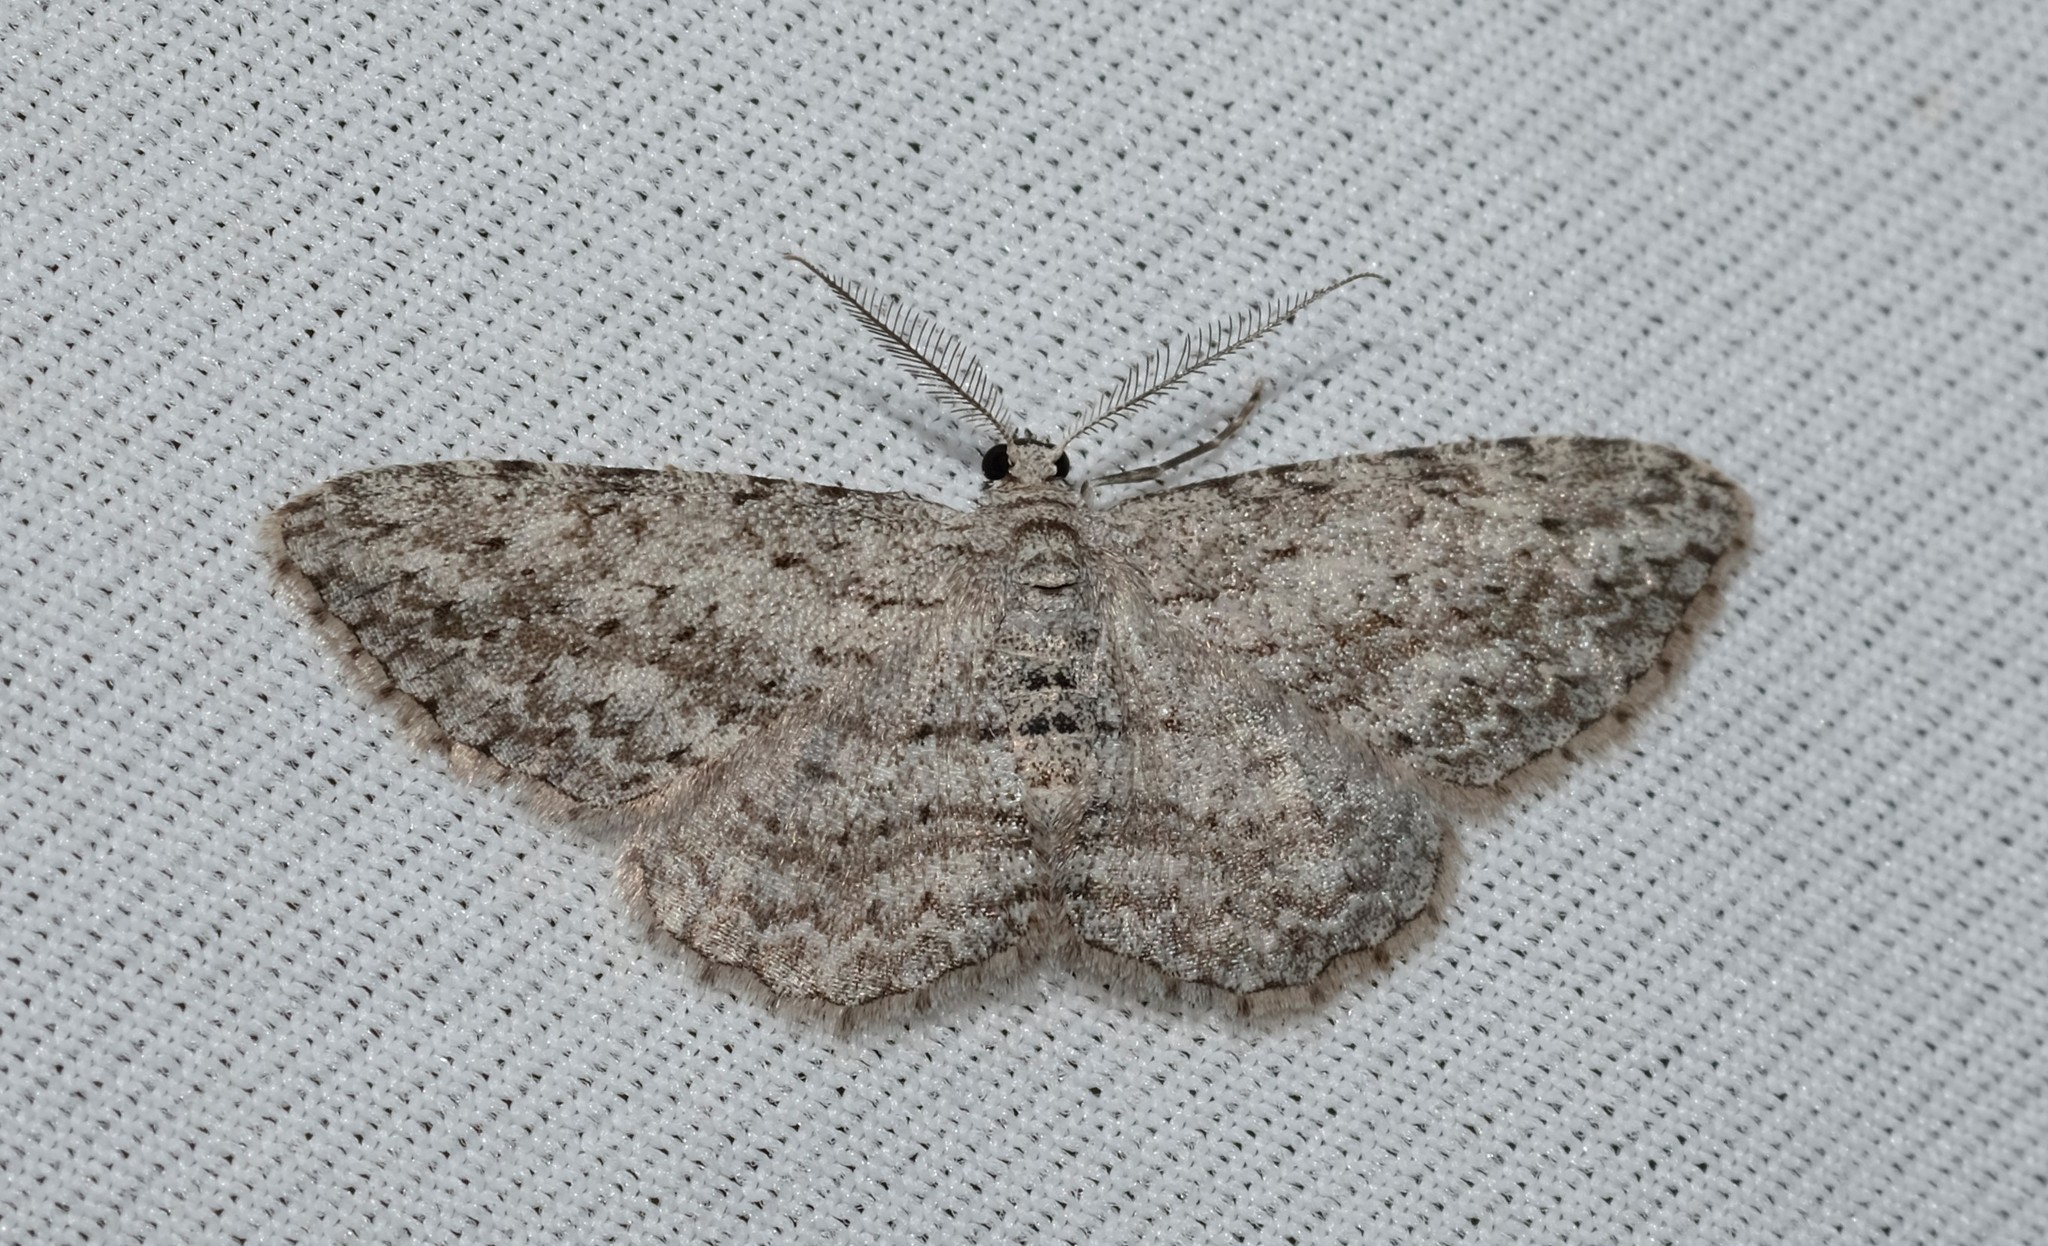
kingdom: Animalia
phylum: Arthropoda
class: Insecta
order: Lepidoptera
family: Geometridae
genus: Phelotis
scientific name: Phelotis cognata
